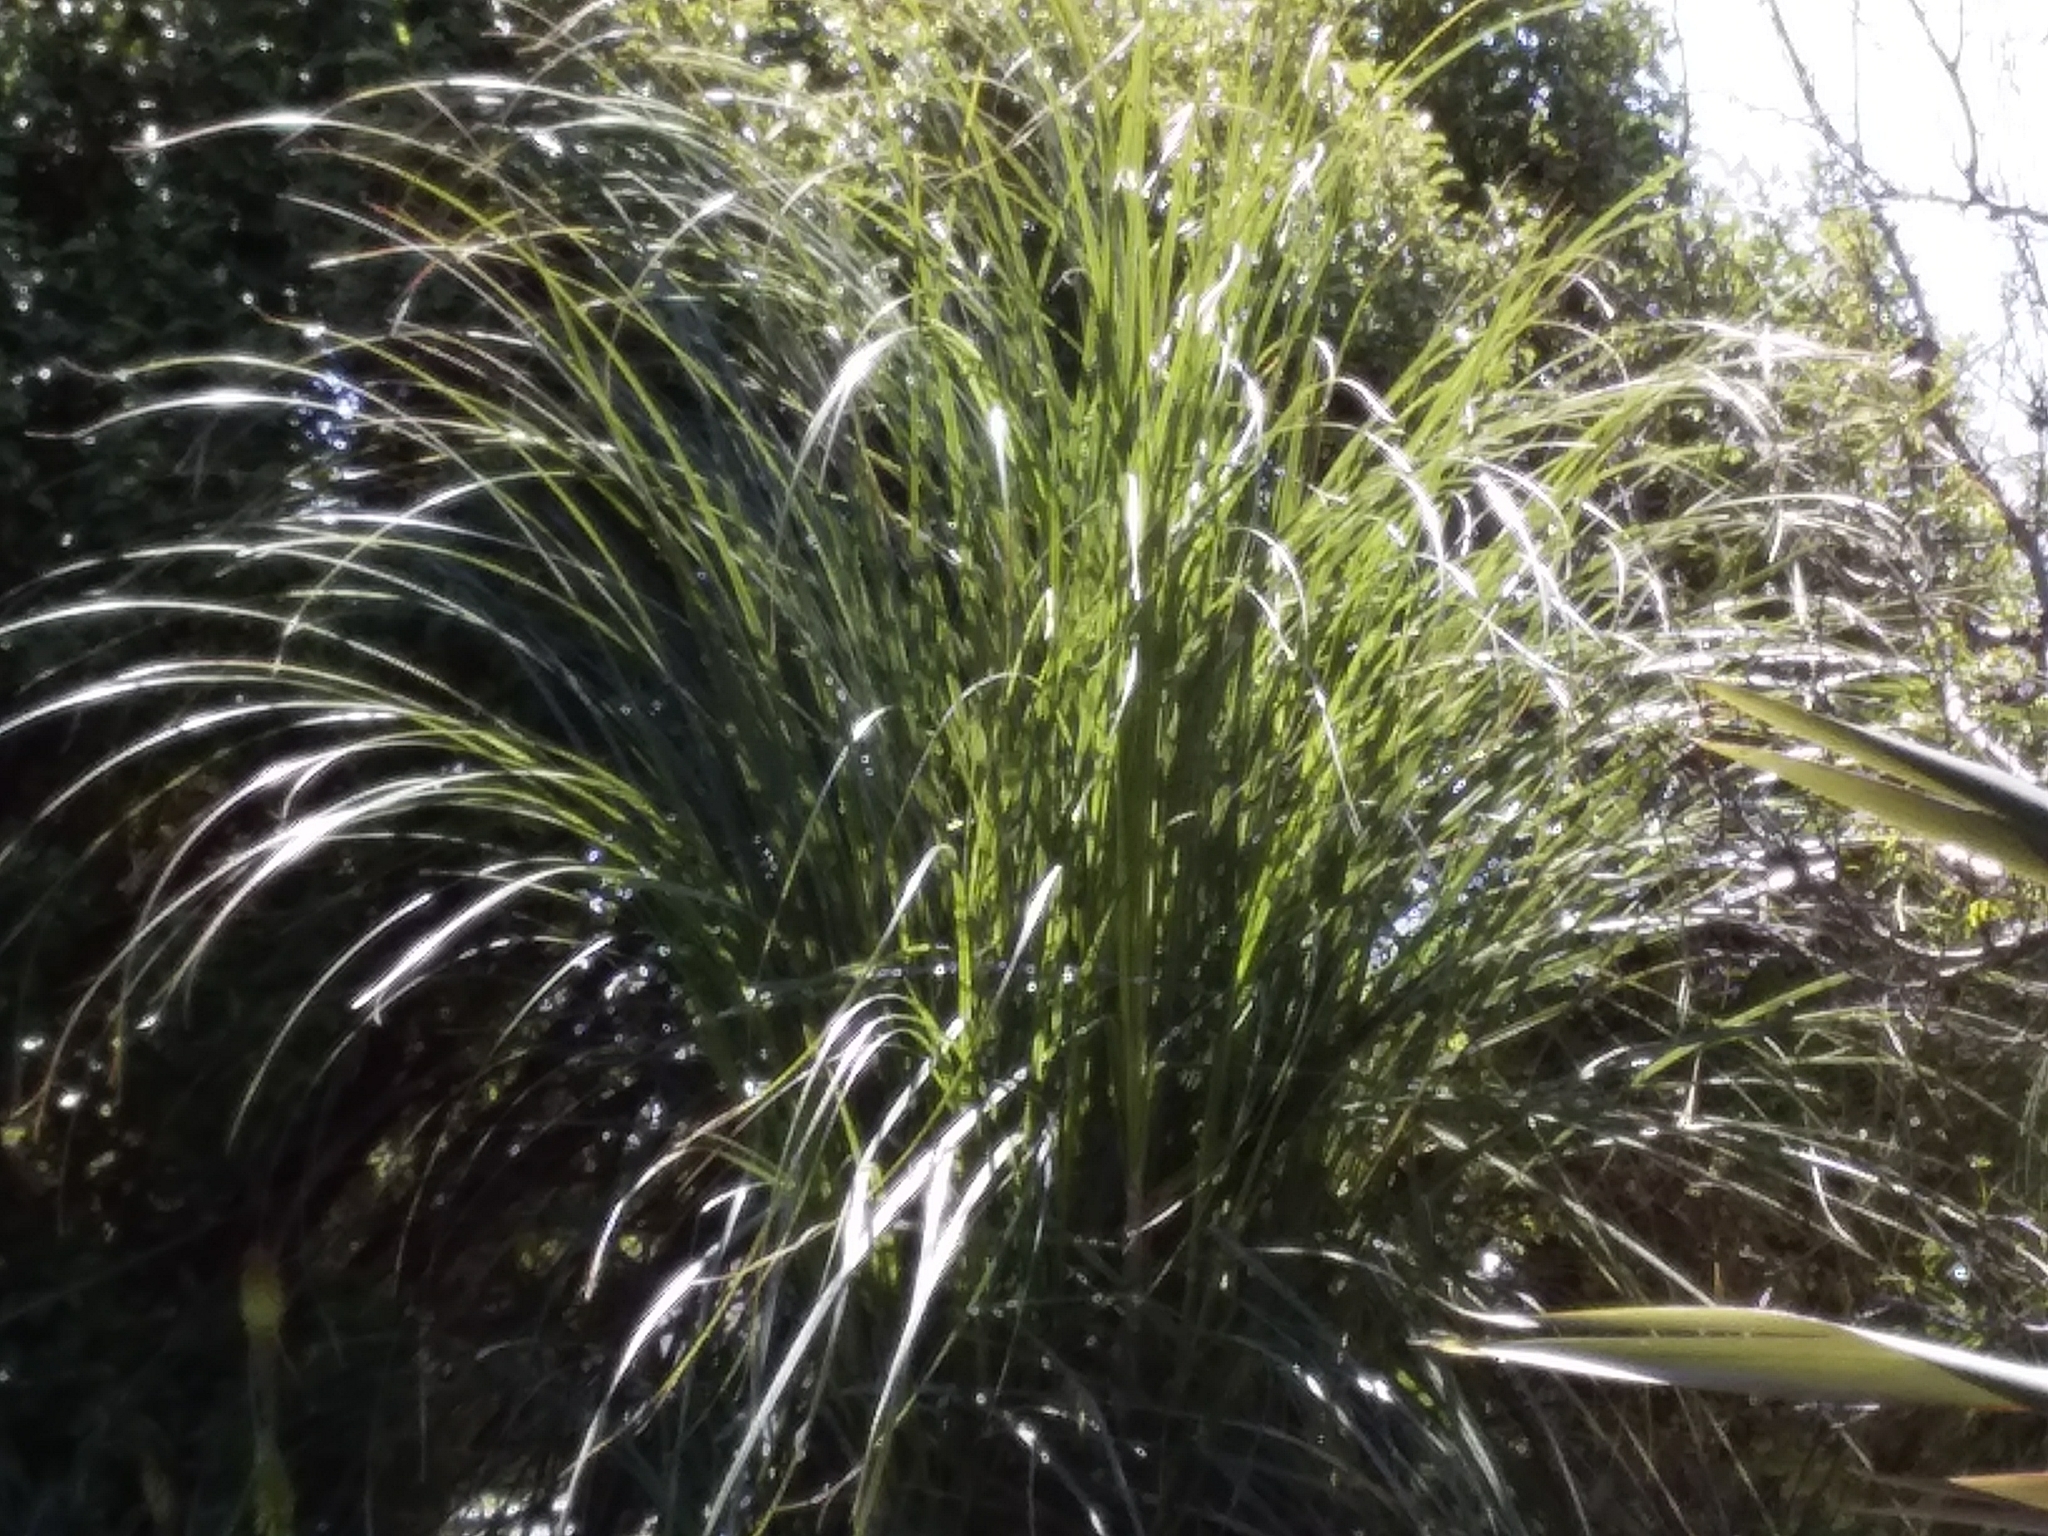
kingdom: Plantae
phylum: Tracheophyta
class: Liliopsida
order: Poales
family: Poaceae
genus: Cortaderia
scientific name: Cortaderia selloana
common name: Uruguayan pampas grass
